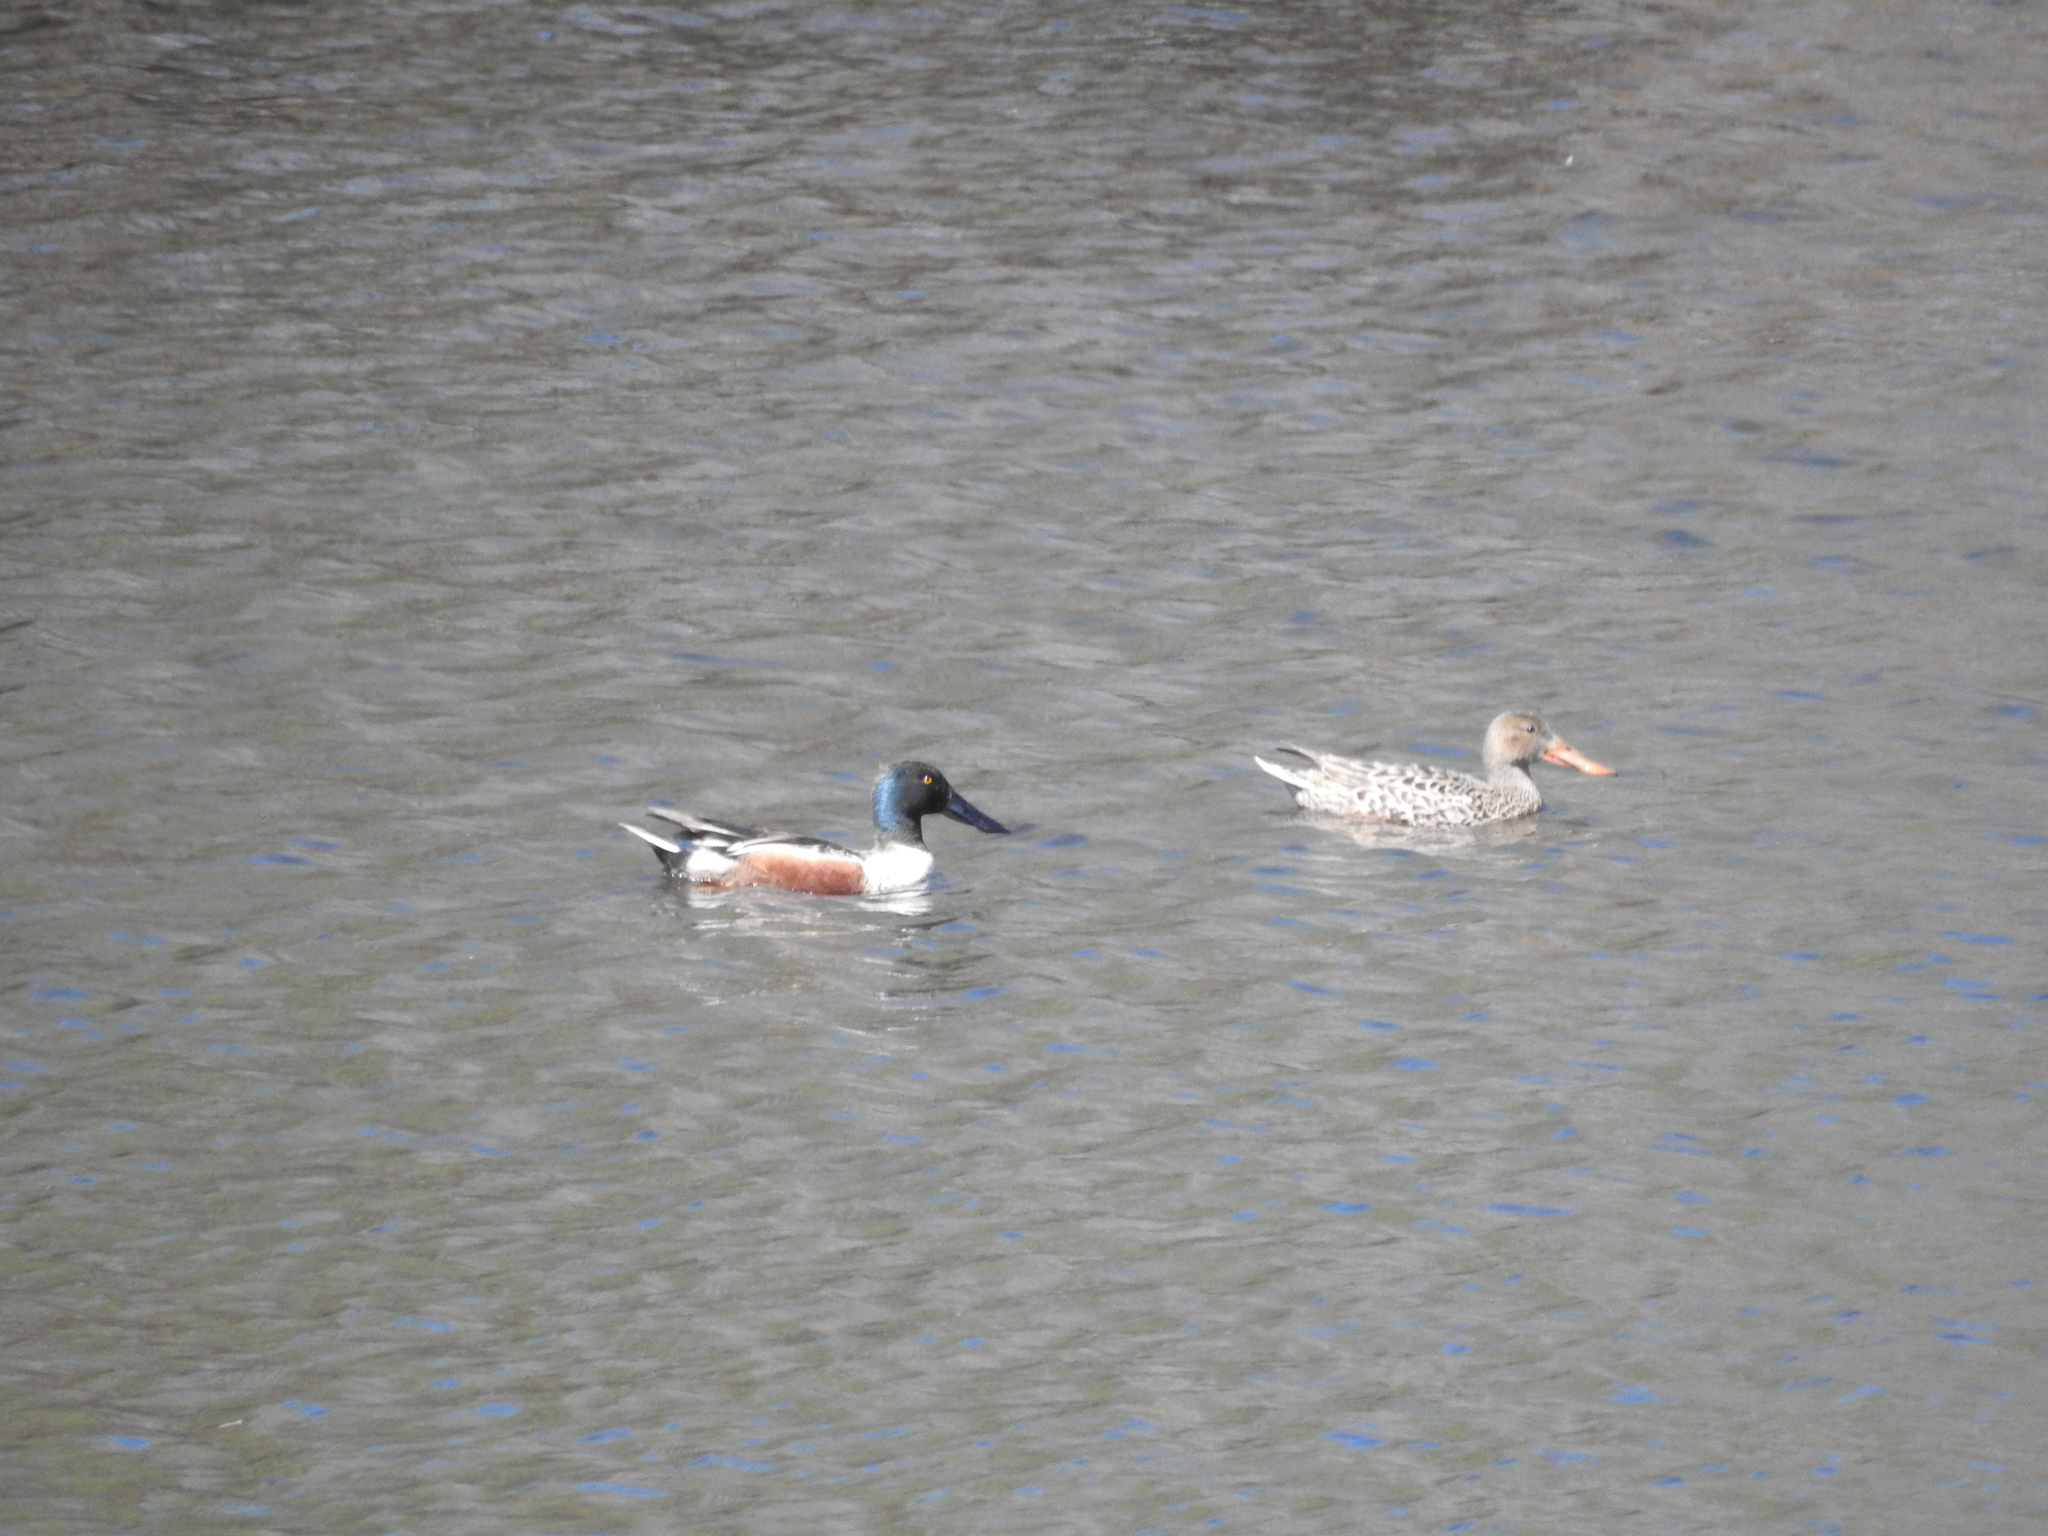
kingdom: Animalia
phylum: Chordata
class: Aves
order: Anseriformes
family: Anatidae
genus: Spatula
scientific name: Spatula clypeata
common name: Northern shoveler
